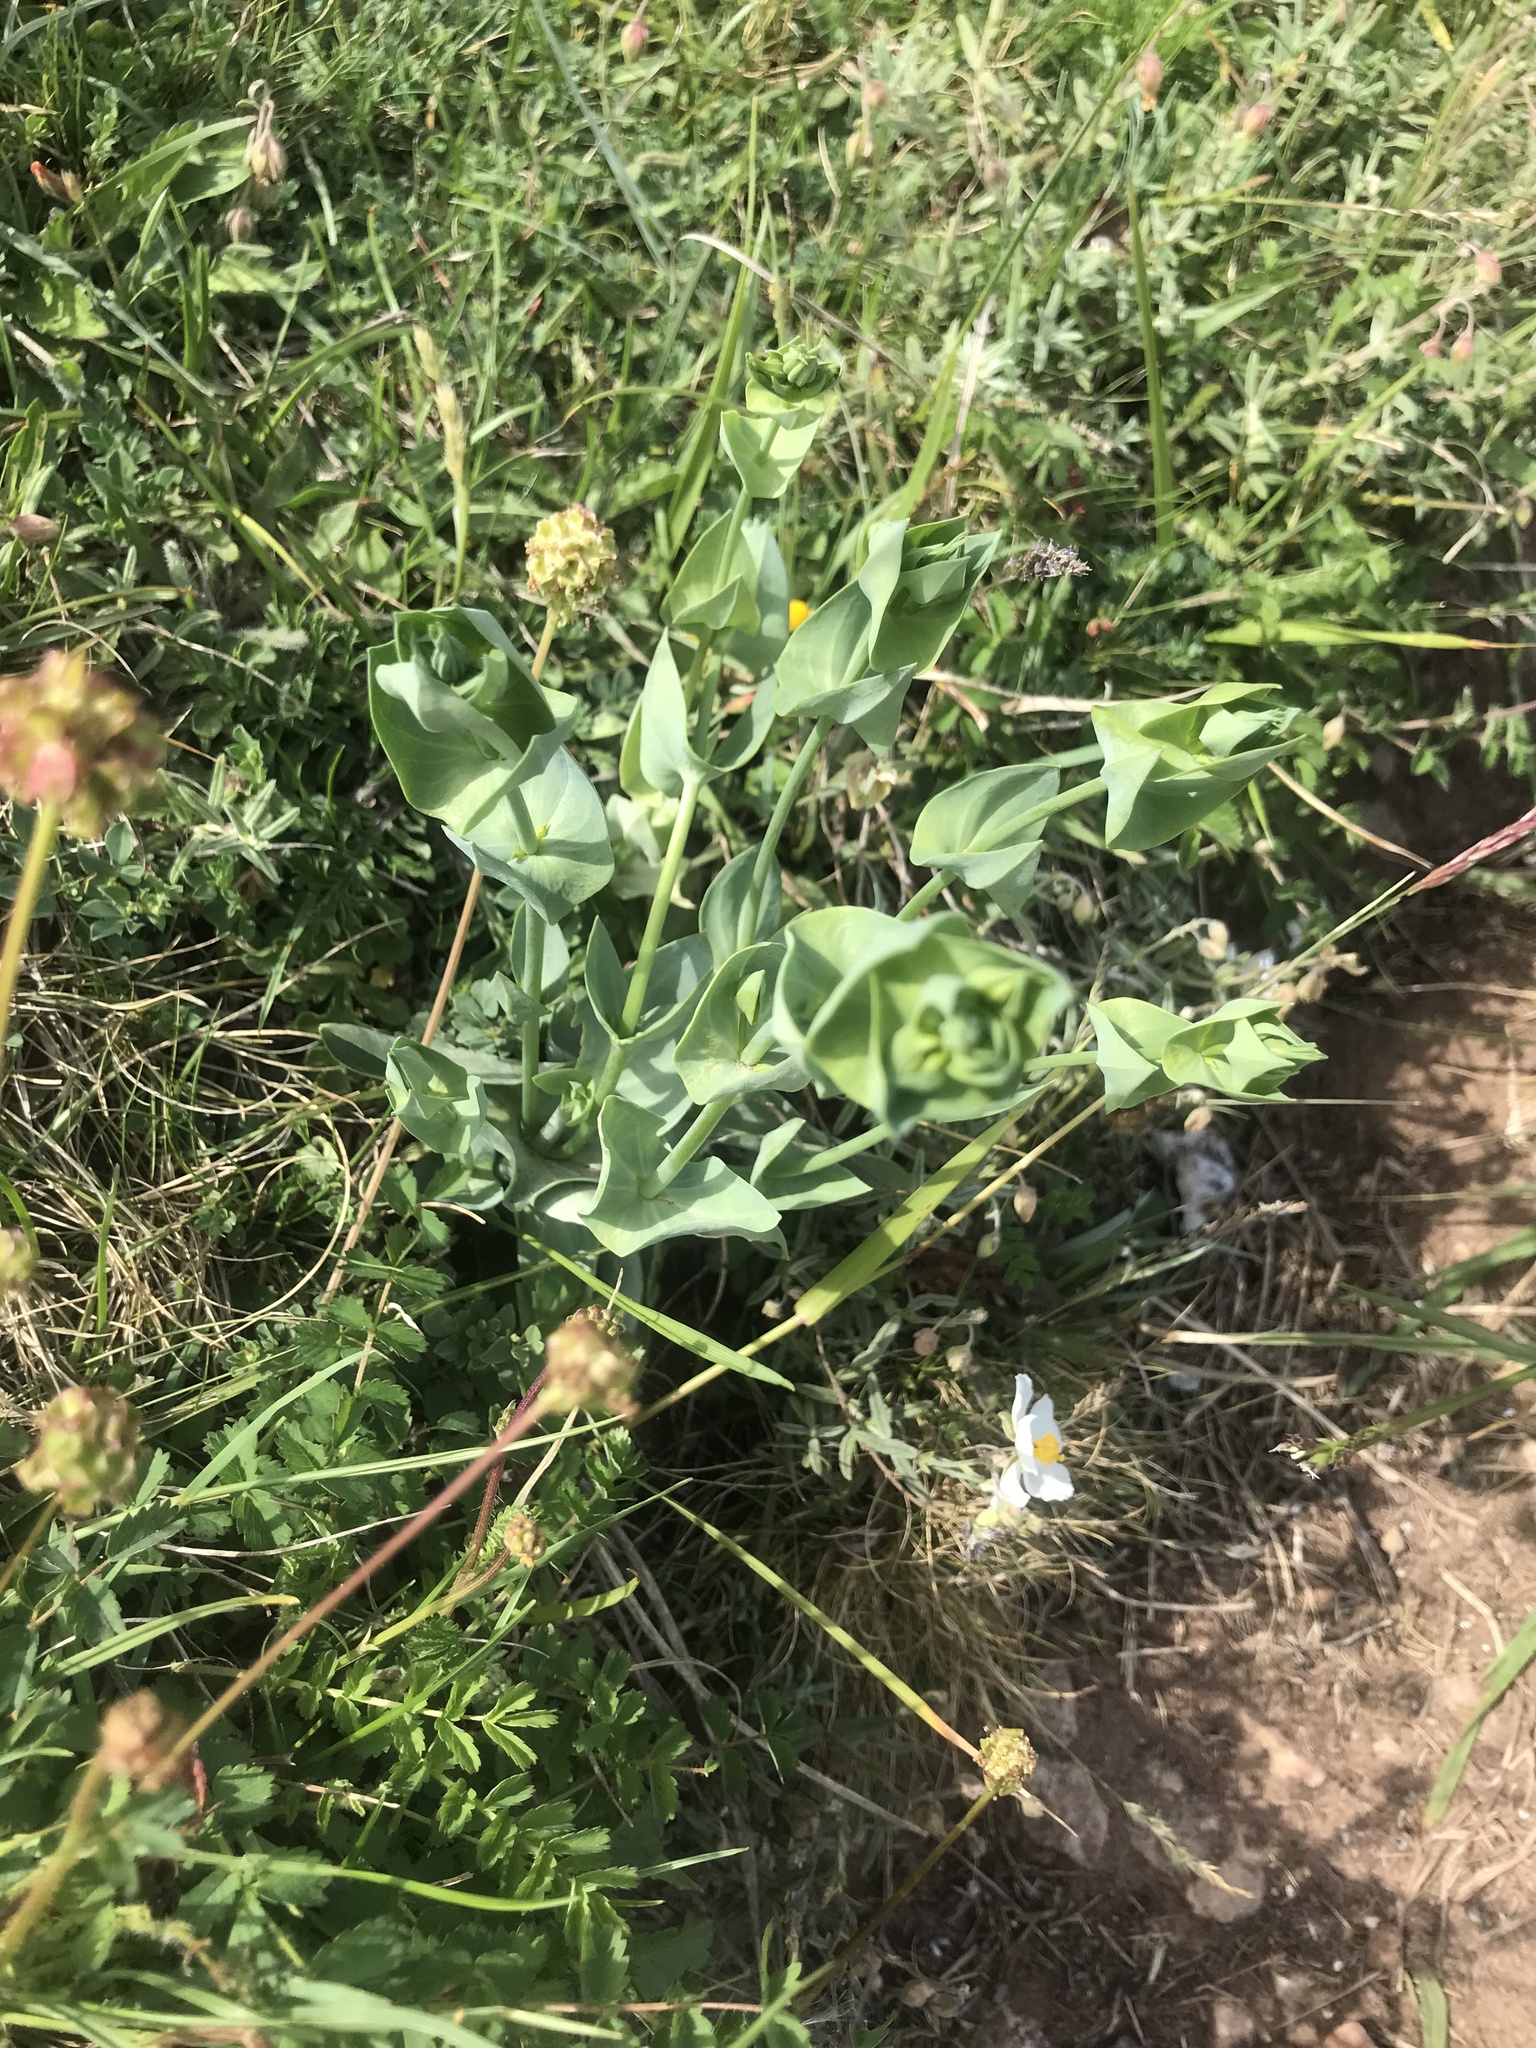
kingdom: Plantae
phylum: Tracheophyta
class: Magnoliopsida
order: Gentianales
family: Gentianaceae
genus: Blackstonia
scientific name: Blackstonia perfoliata
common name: Yellow-wort
